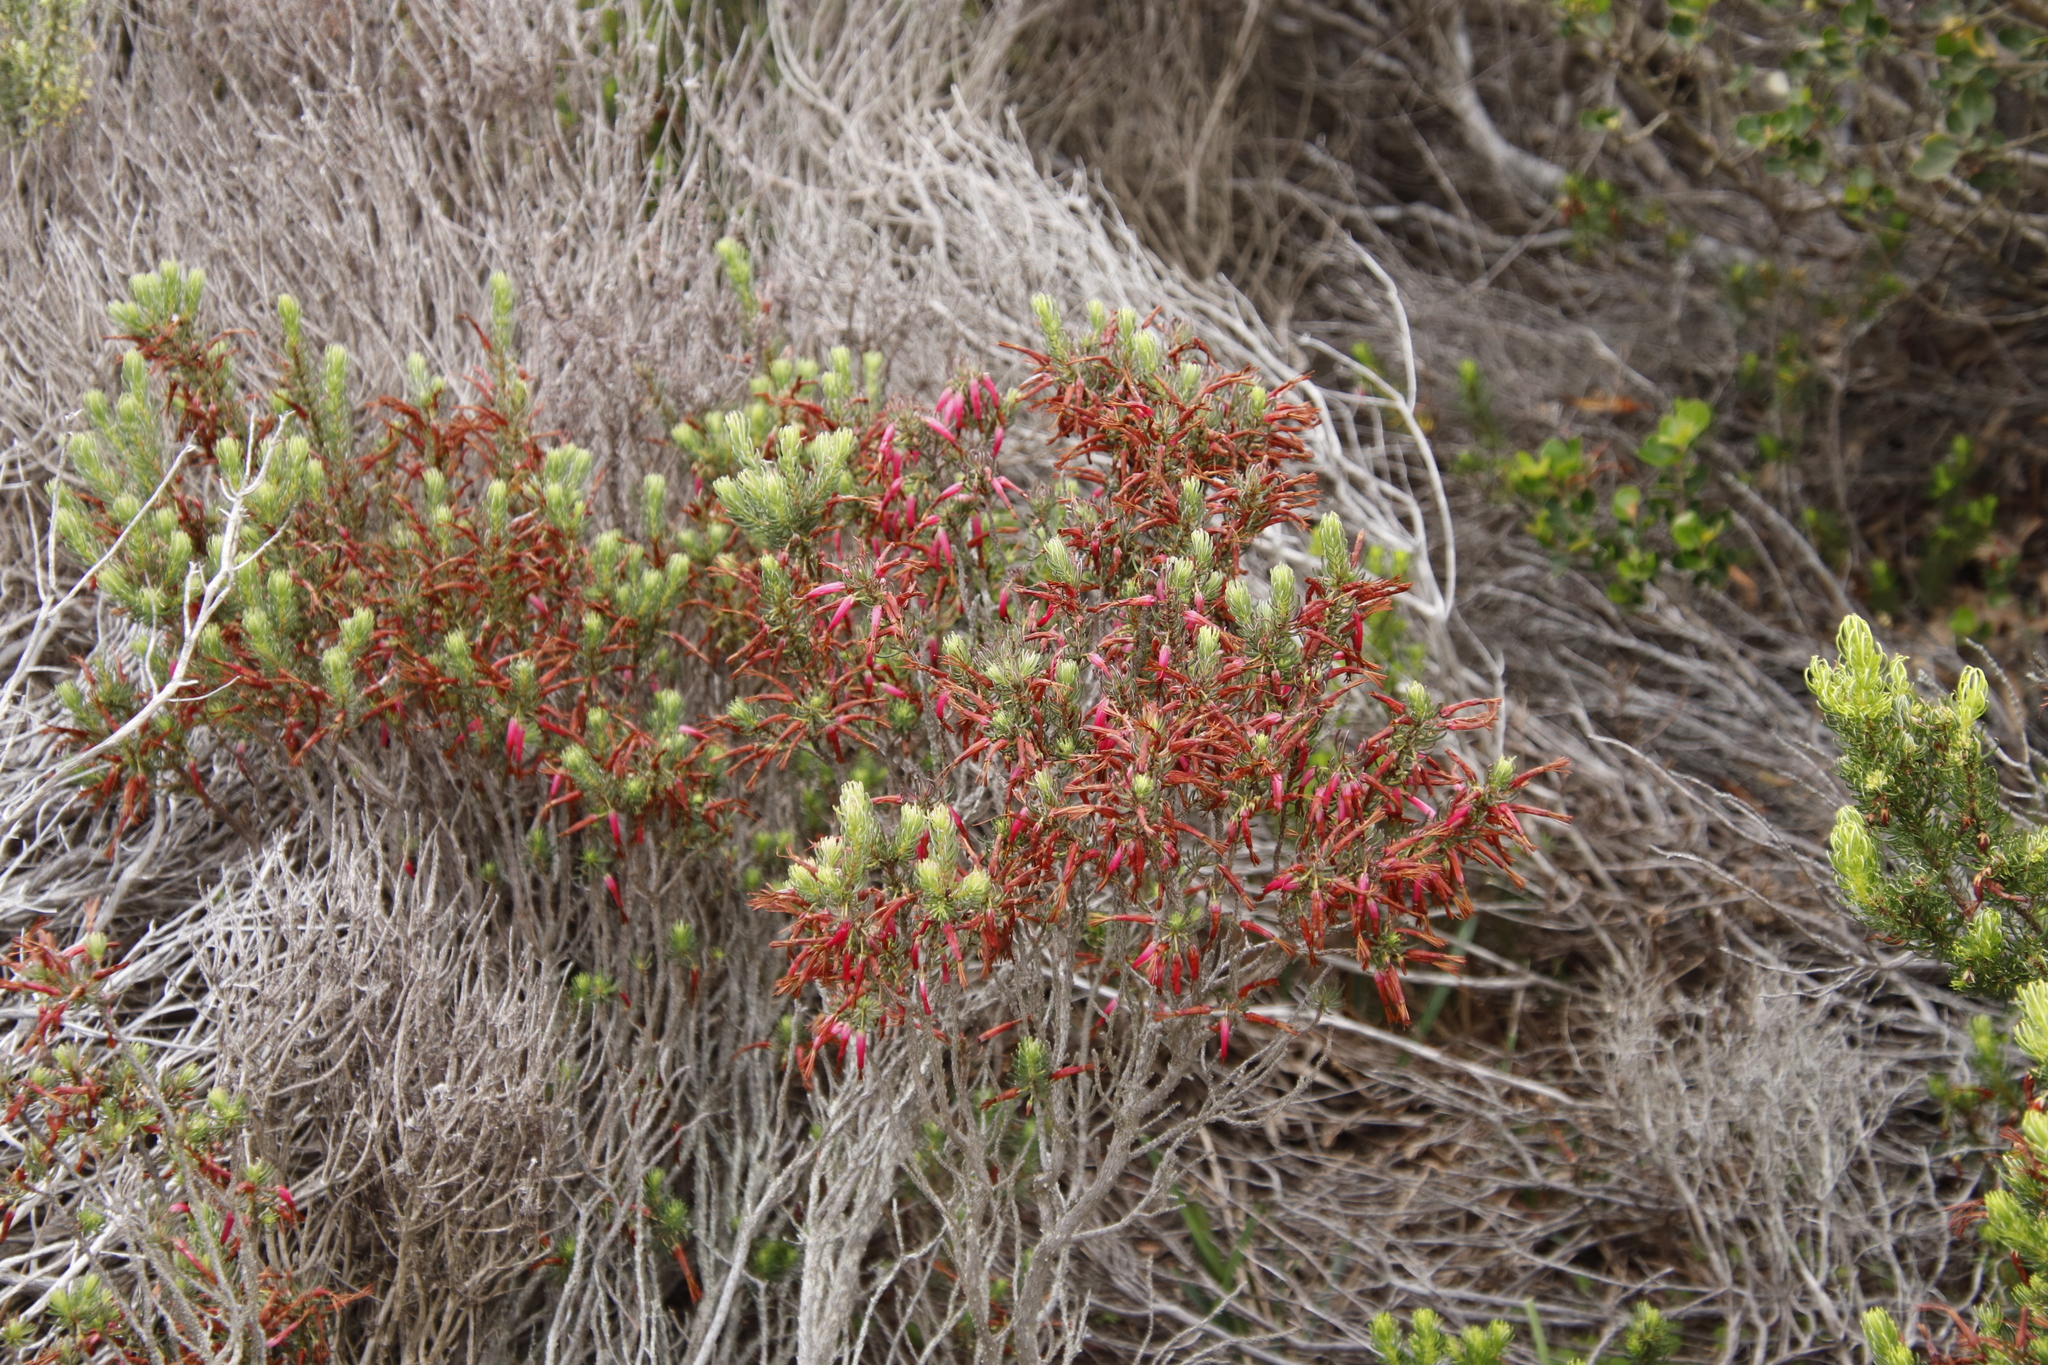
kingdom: Plantae
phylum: Tracheophyta
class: Magnoliopsida
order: Ericales
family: Ericaceae
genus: Erica
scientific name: Erica plukenetii
